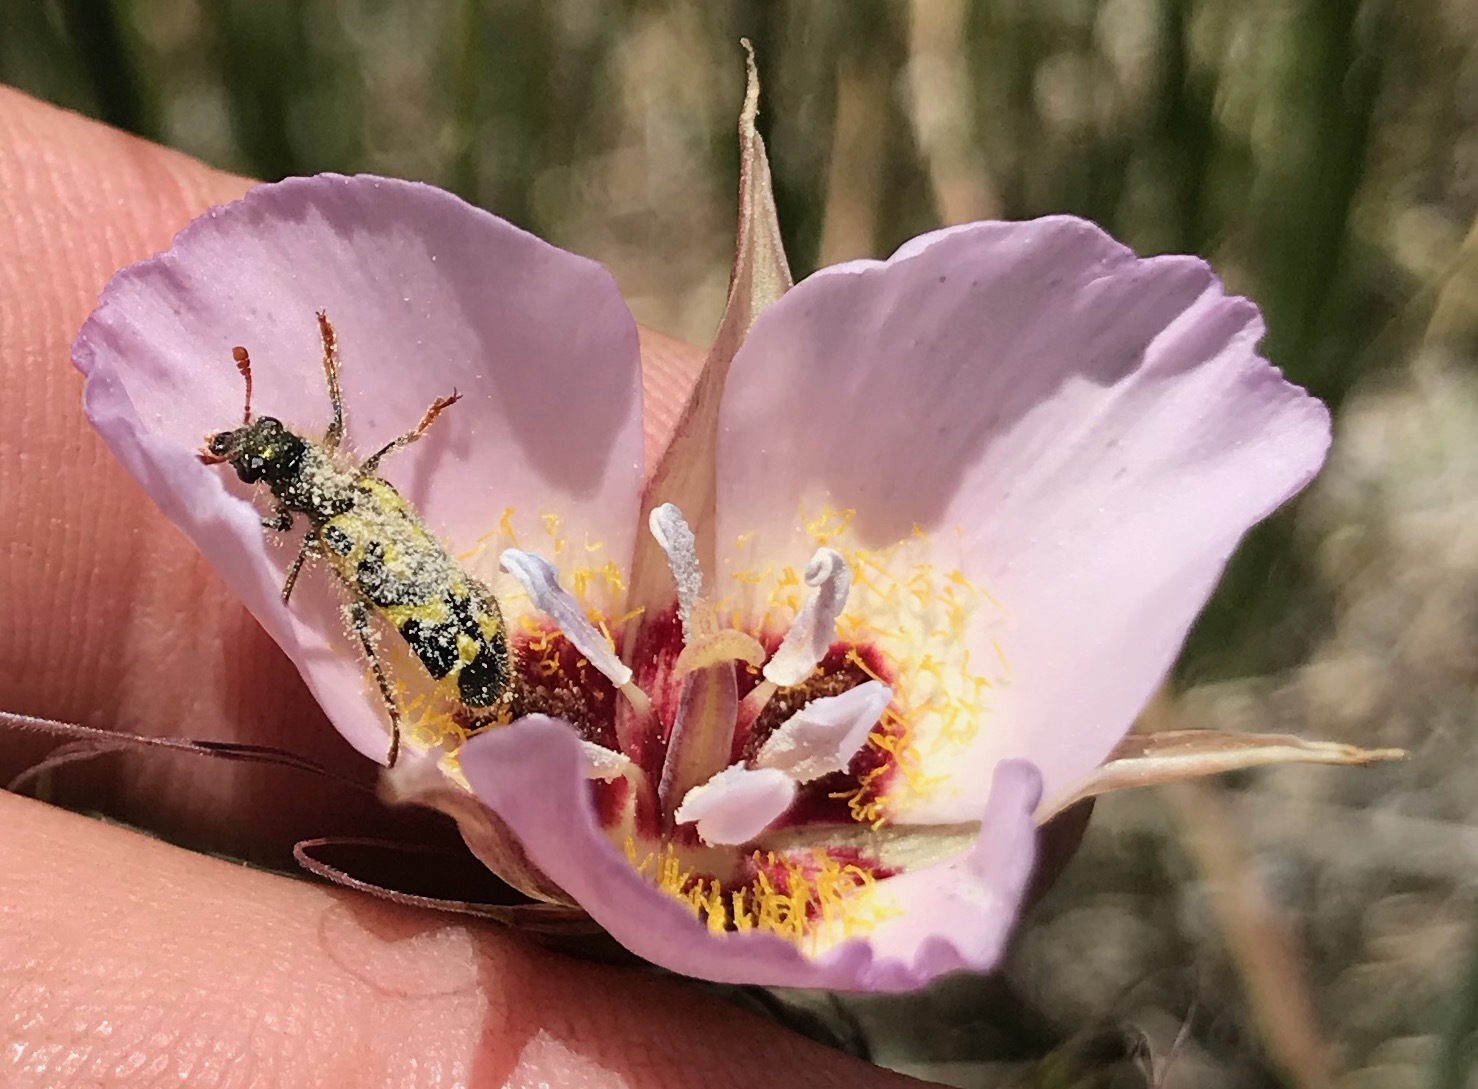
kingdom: Plantae
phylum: Tracheophyta
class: Liliopsida
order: Liliales
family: Liliaceae
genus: Calochortus
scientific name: Calochortus palmeri
